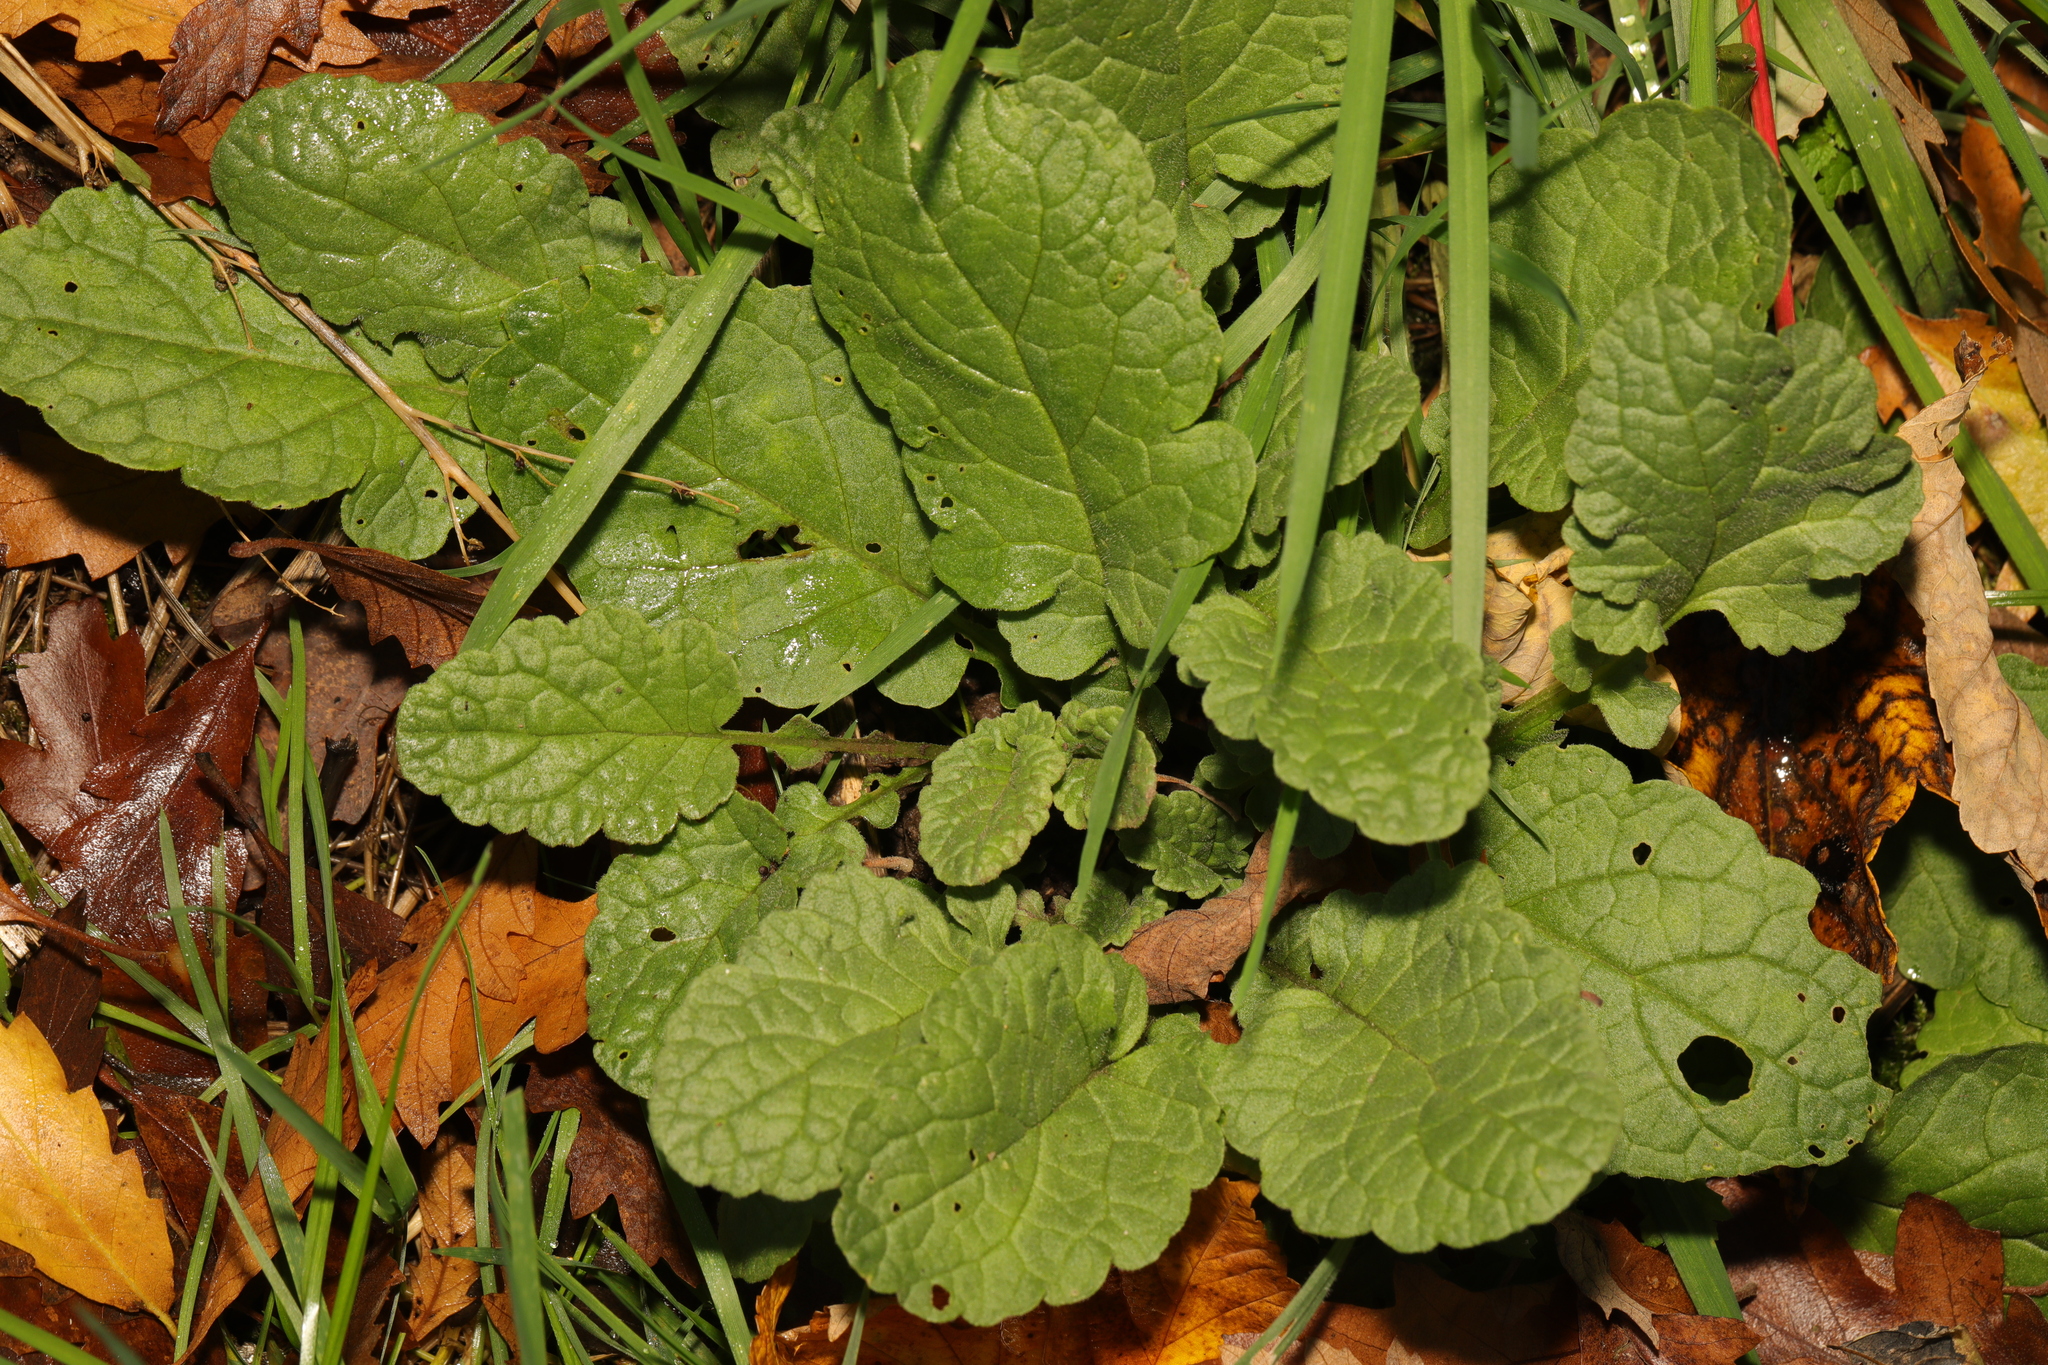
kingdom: Plantae
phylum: Tracheophyta
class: Magnoliopsida
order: Asterales
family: Asteraceae
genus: Jacobaea
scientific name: Jacobaea vulgaris
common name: Stinking willie
